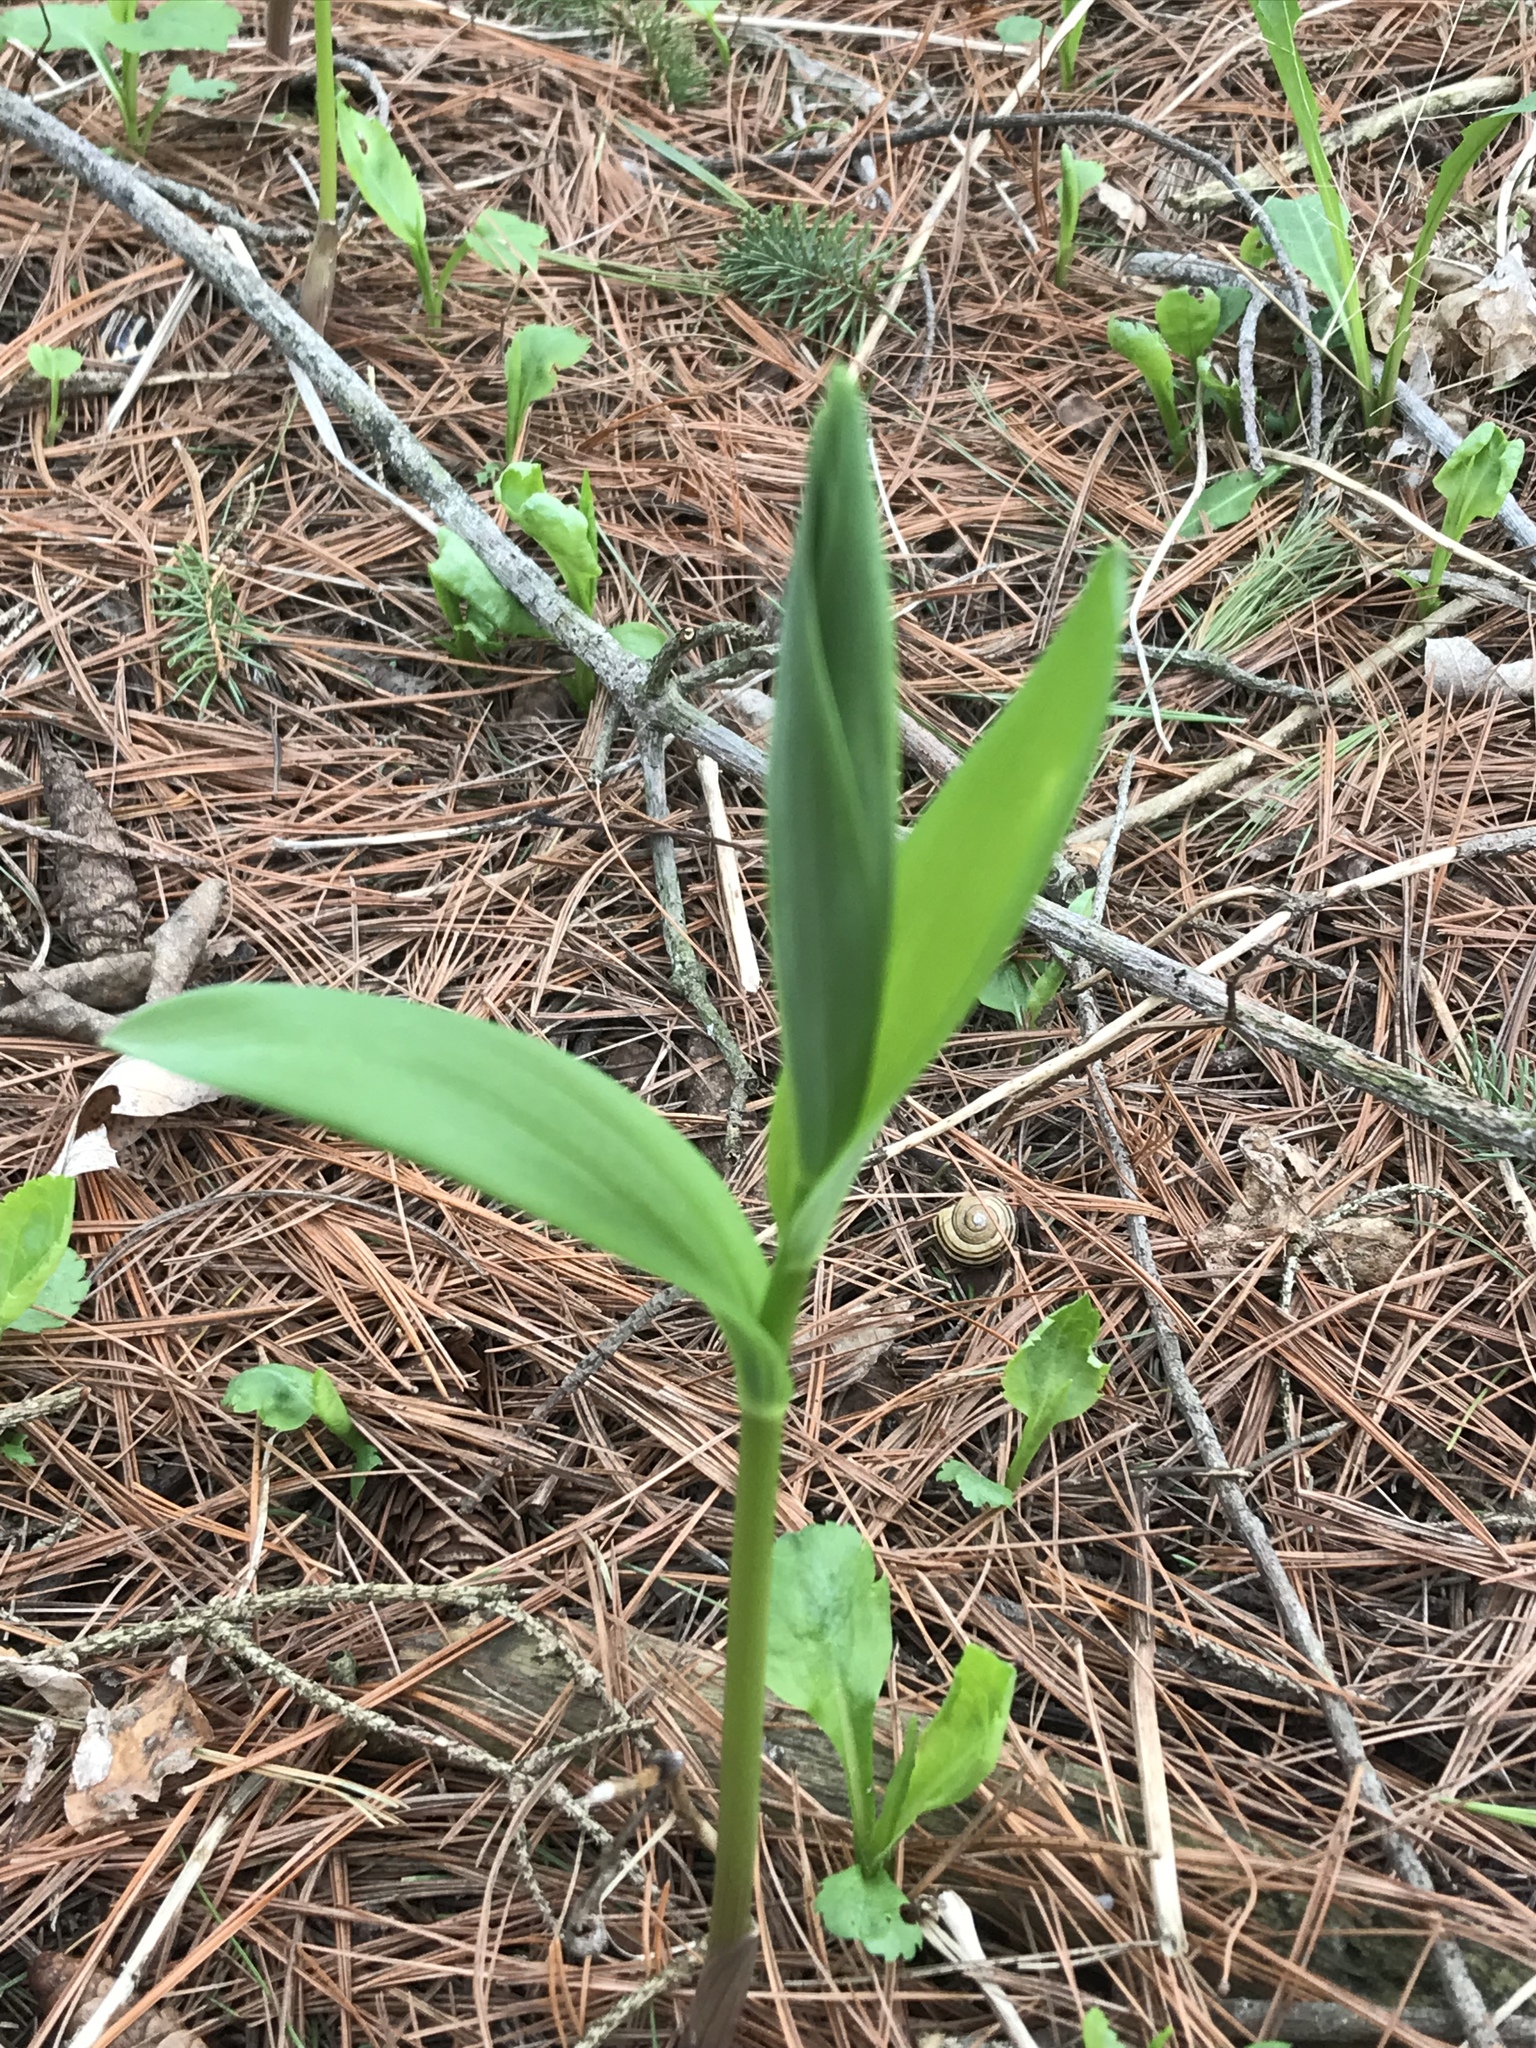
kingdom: Plantae
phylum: Tracheophyta
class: Liliopsida
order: Asparagales
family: Asparagaceae
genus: Maianthemum
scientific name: Maianthemum stellatum
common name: Little false solomon's seal
